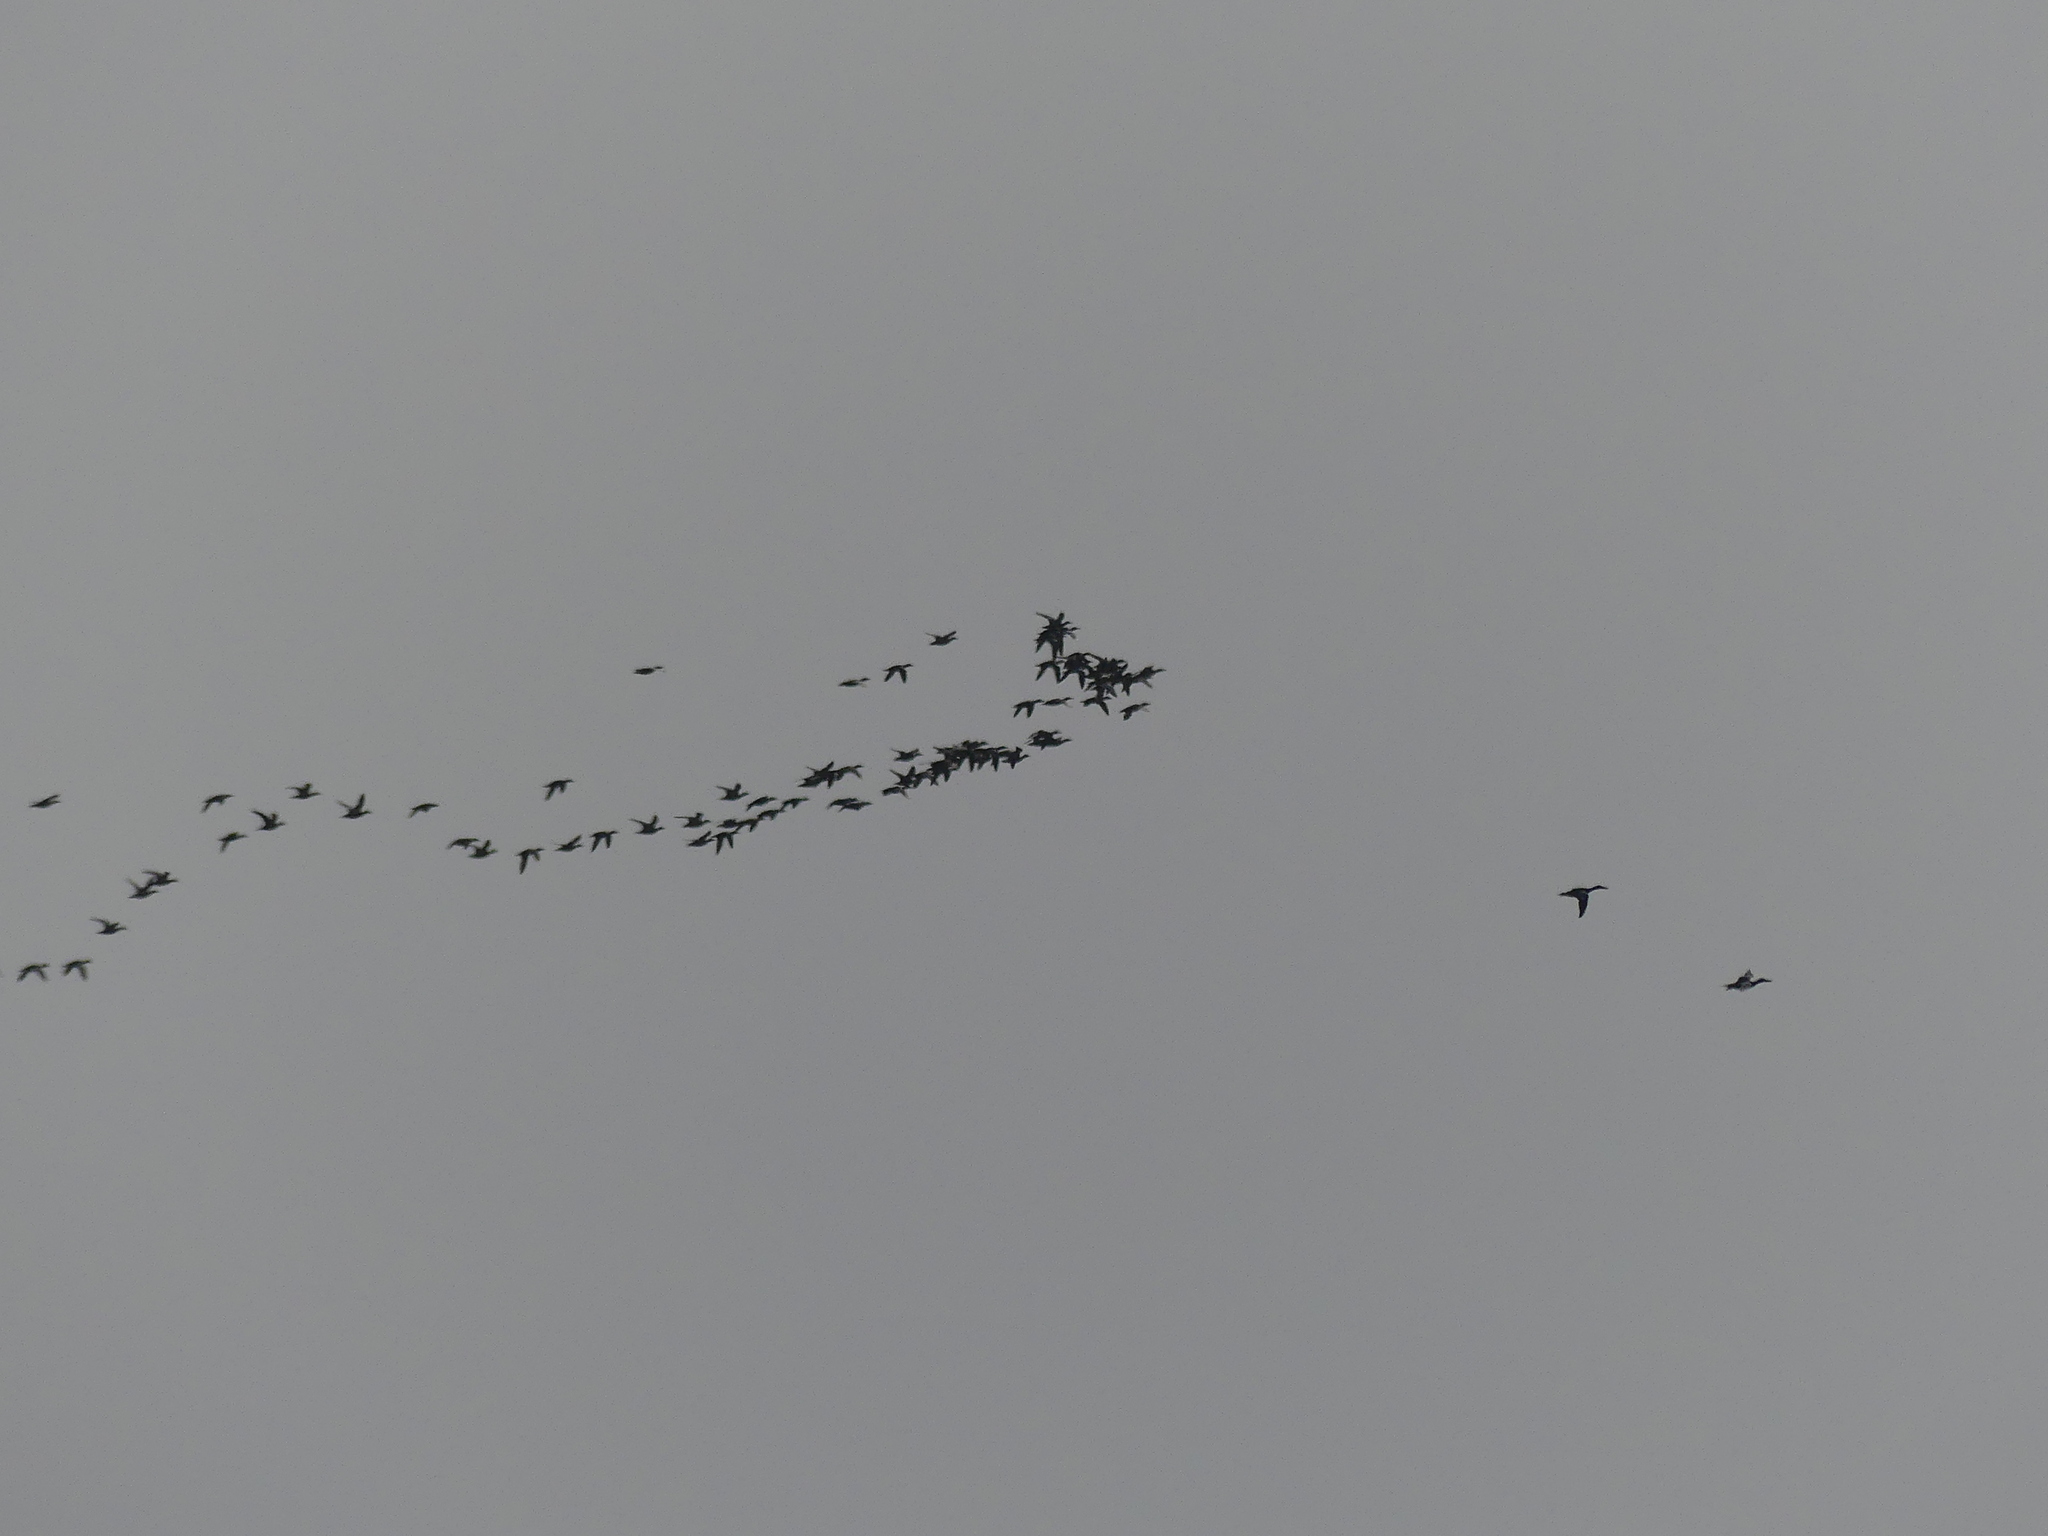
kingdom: Animalia
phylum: Chordata
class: Aves
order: Anseriformes
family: Anatidae
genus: Spatula
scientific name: Spatula clypeata
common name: Northern shoveler
